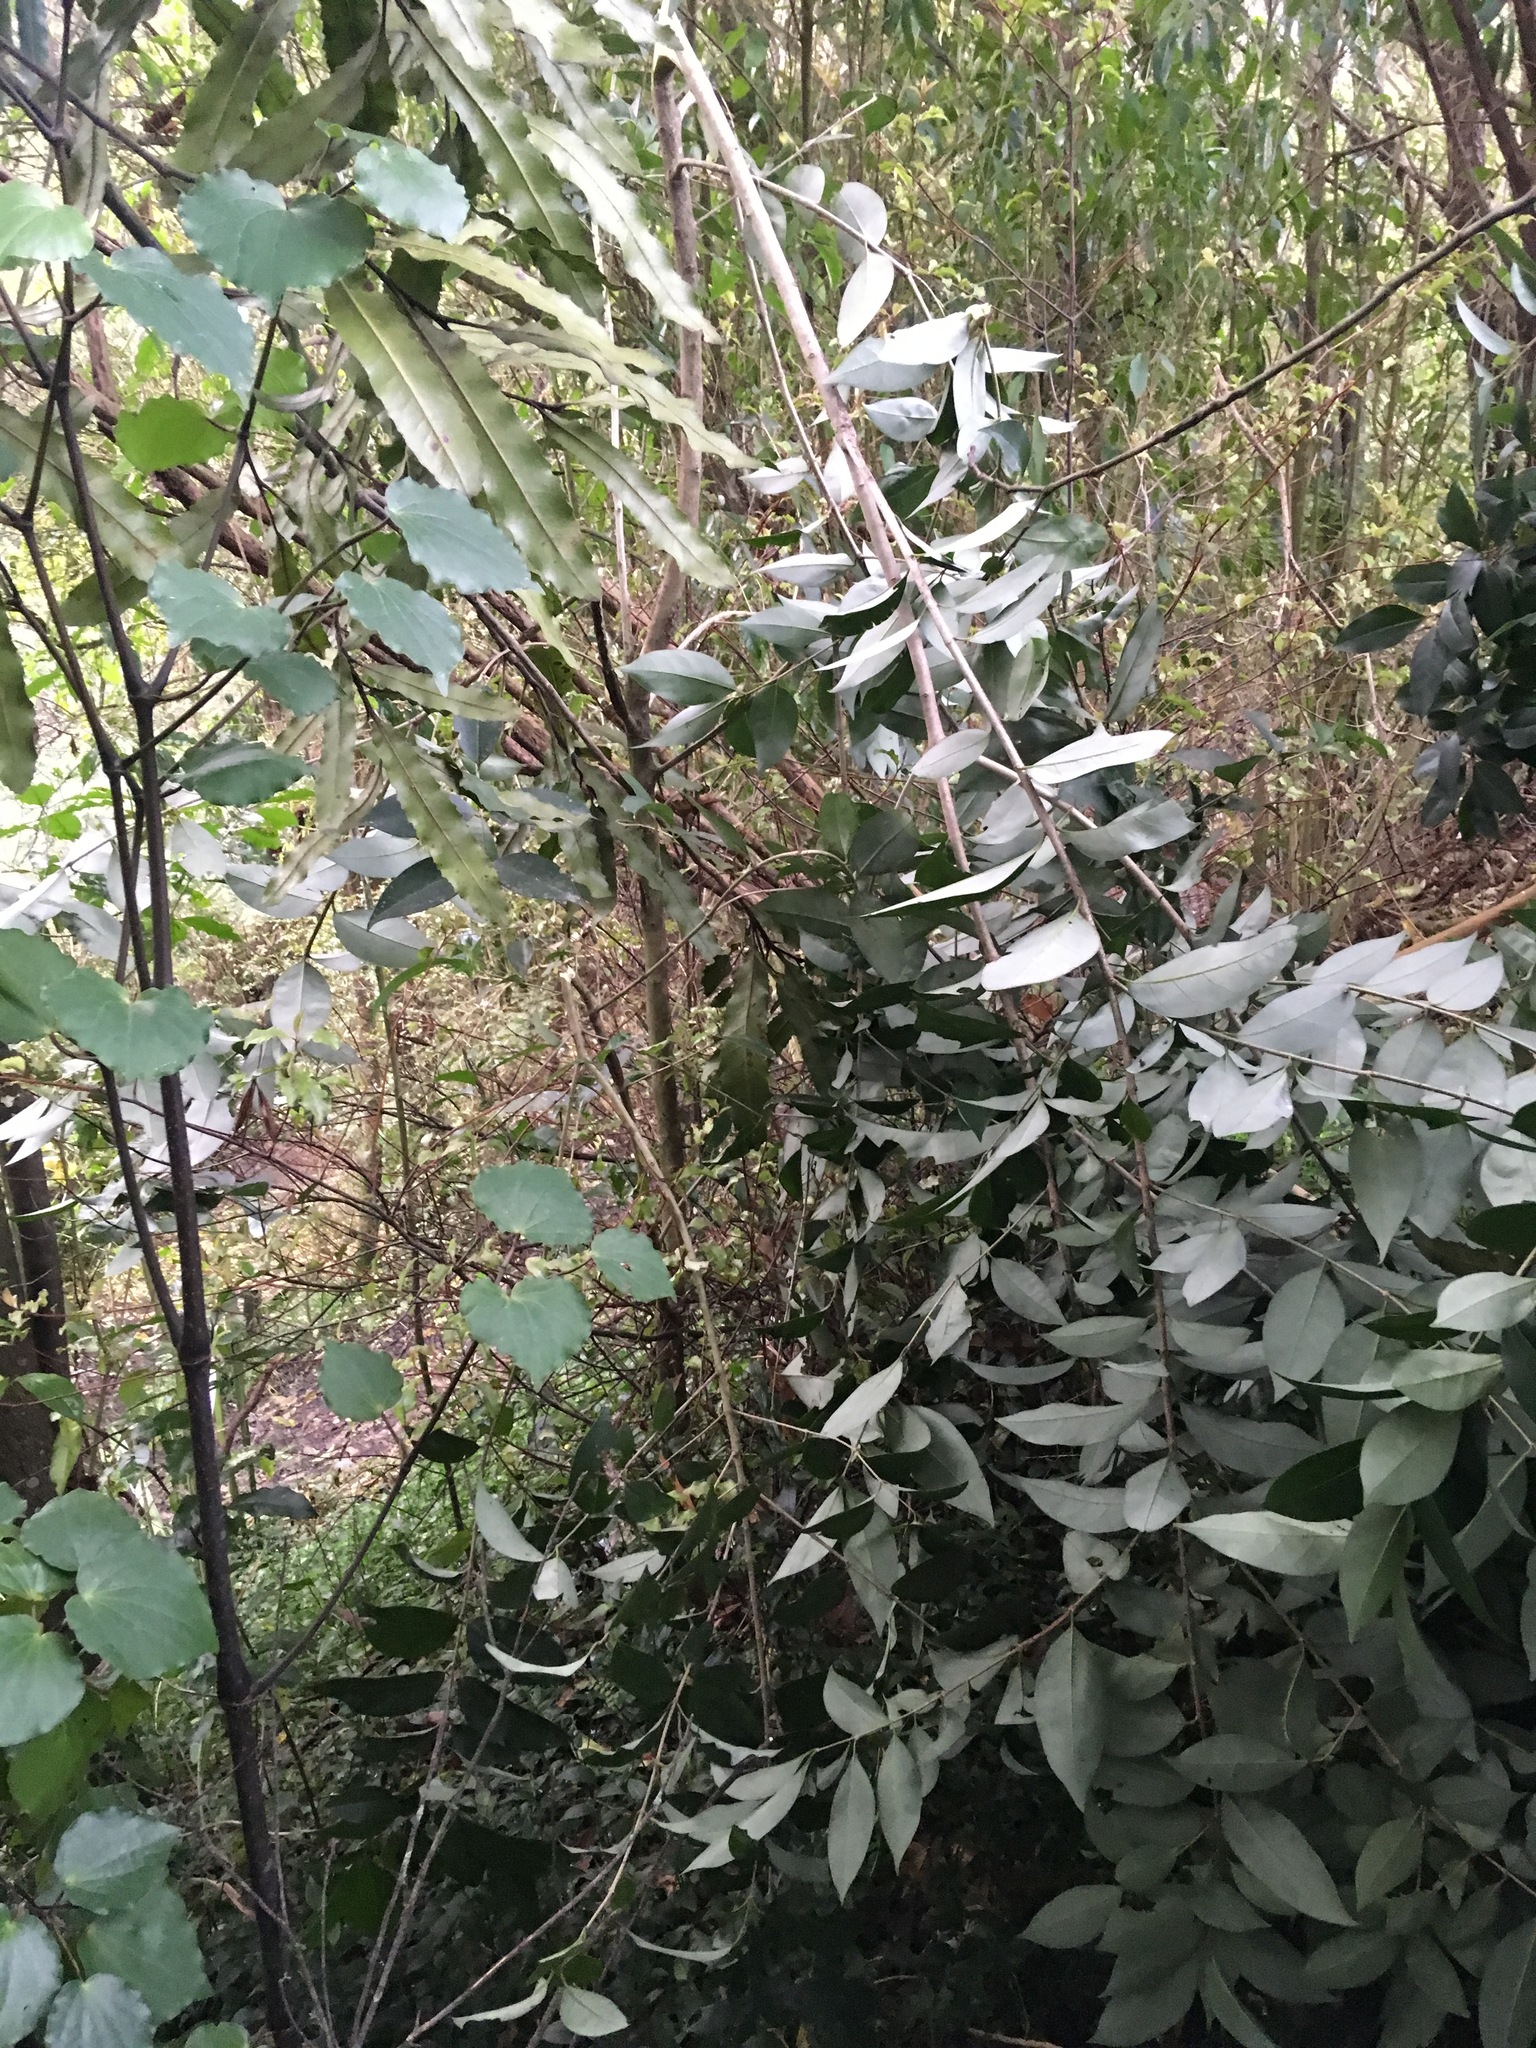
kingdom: Plantae
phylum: Tracheophyta
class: Magnoliopsida
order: Lamiales
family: Oleaceae
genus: Ligustrum
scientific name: Ligustrum lucidum
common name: Glossy privet
